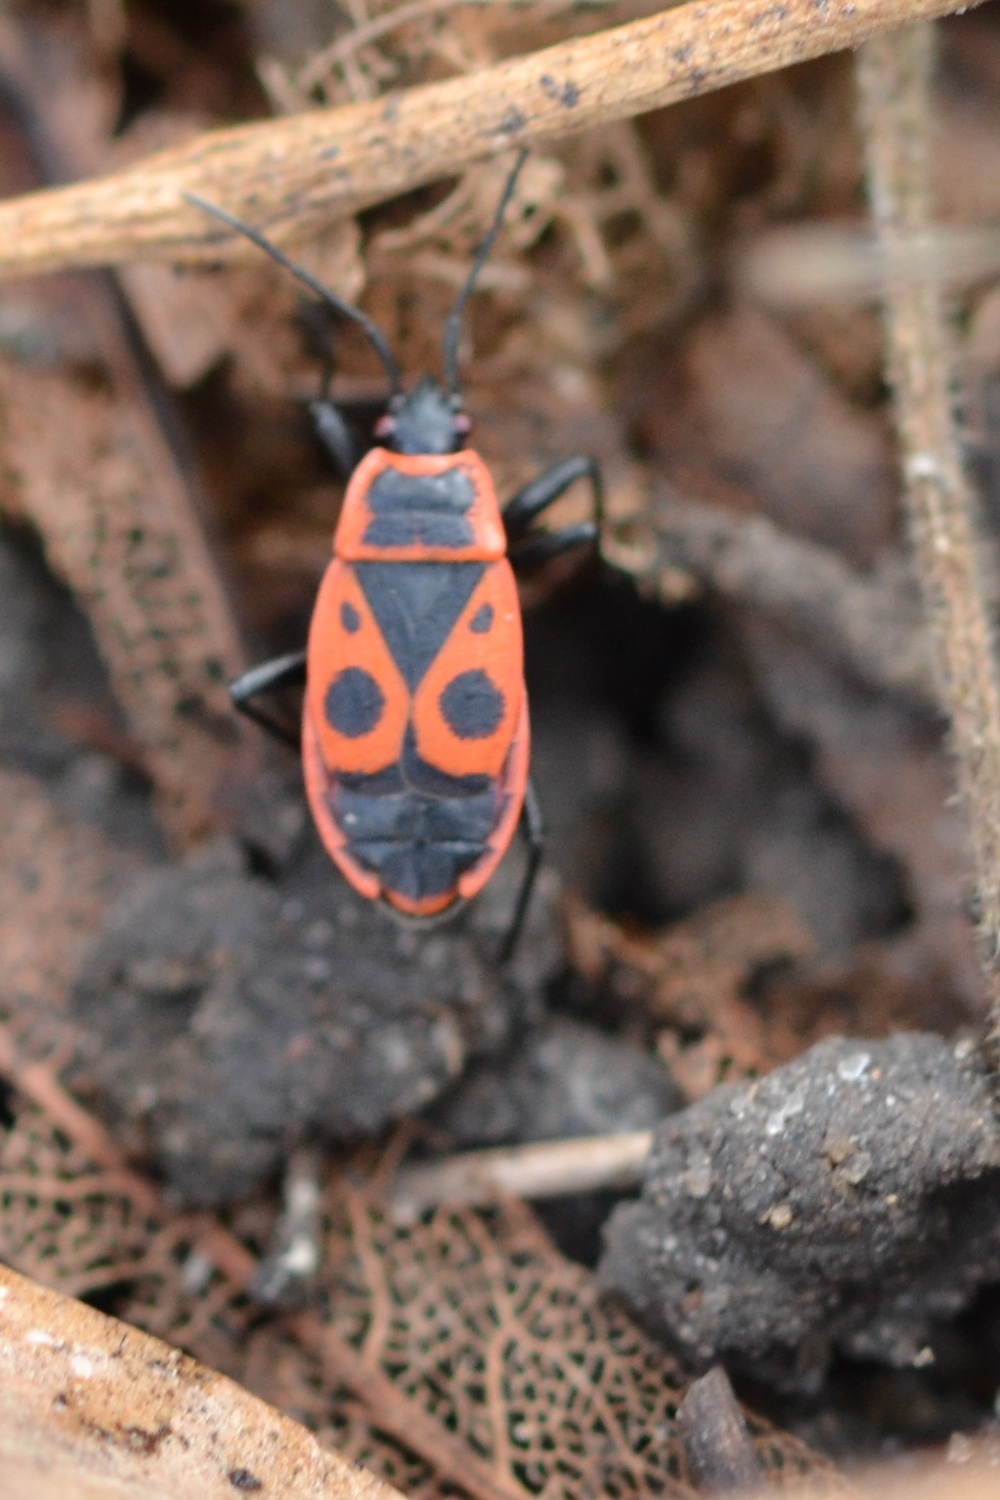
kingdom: Animalia
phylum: Arthropoda
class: Insecta
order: Hemiptera
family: Pyrrhocoridae
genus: Pyrrhocoris
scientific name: Pyrrhocoris apterus
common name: Firebug
